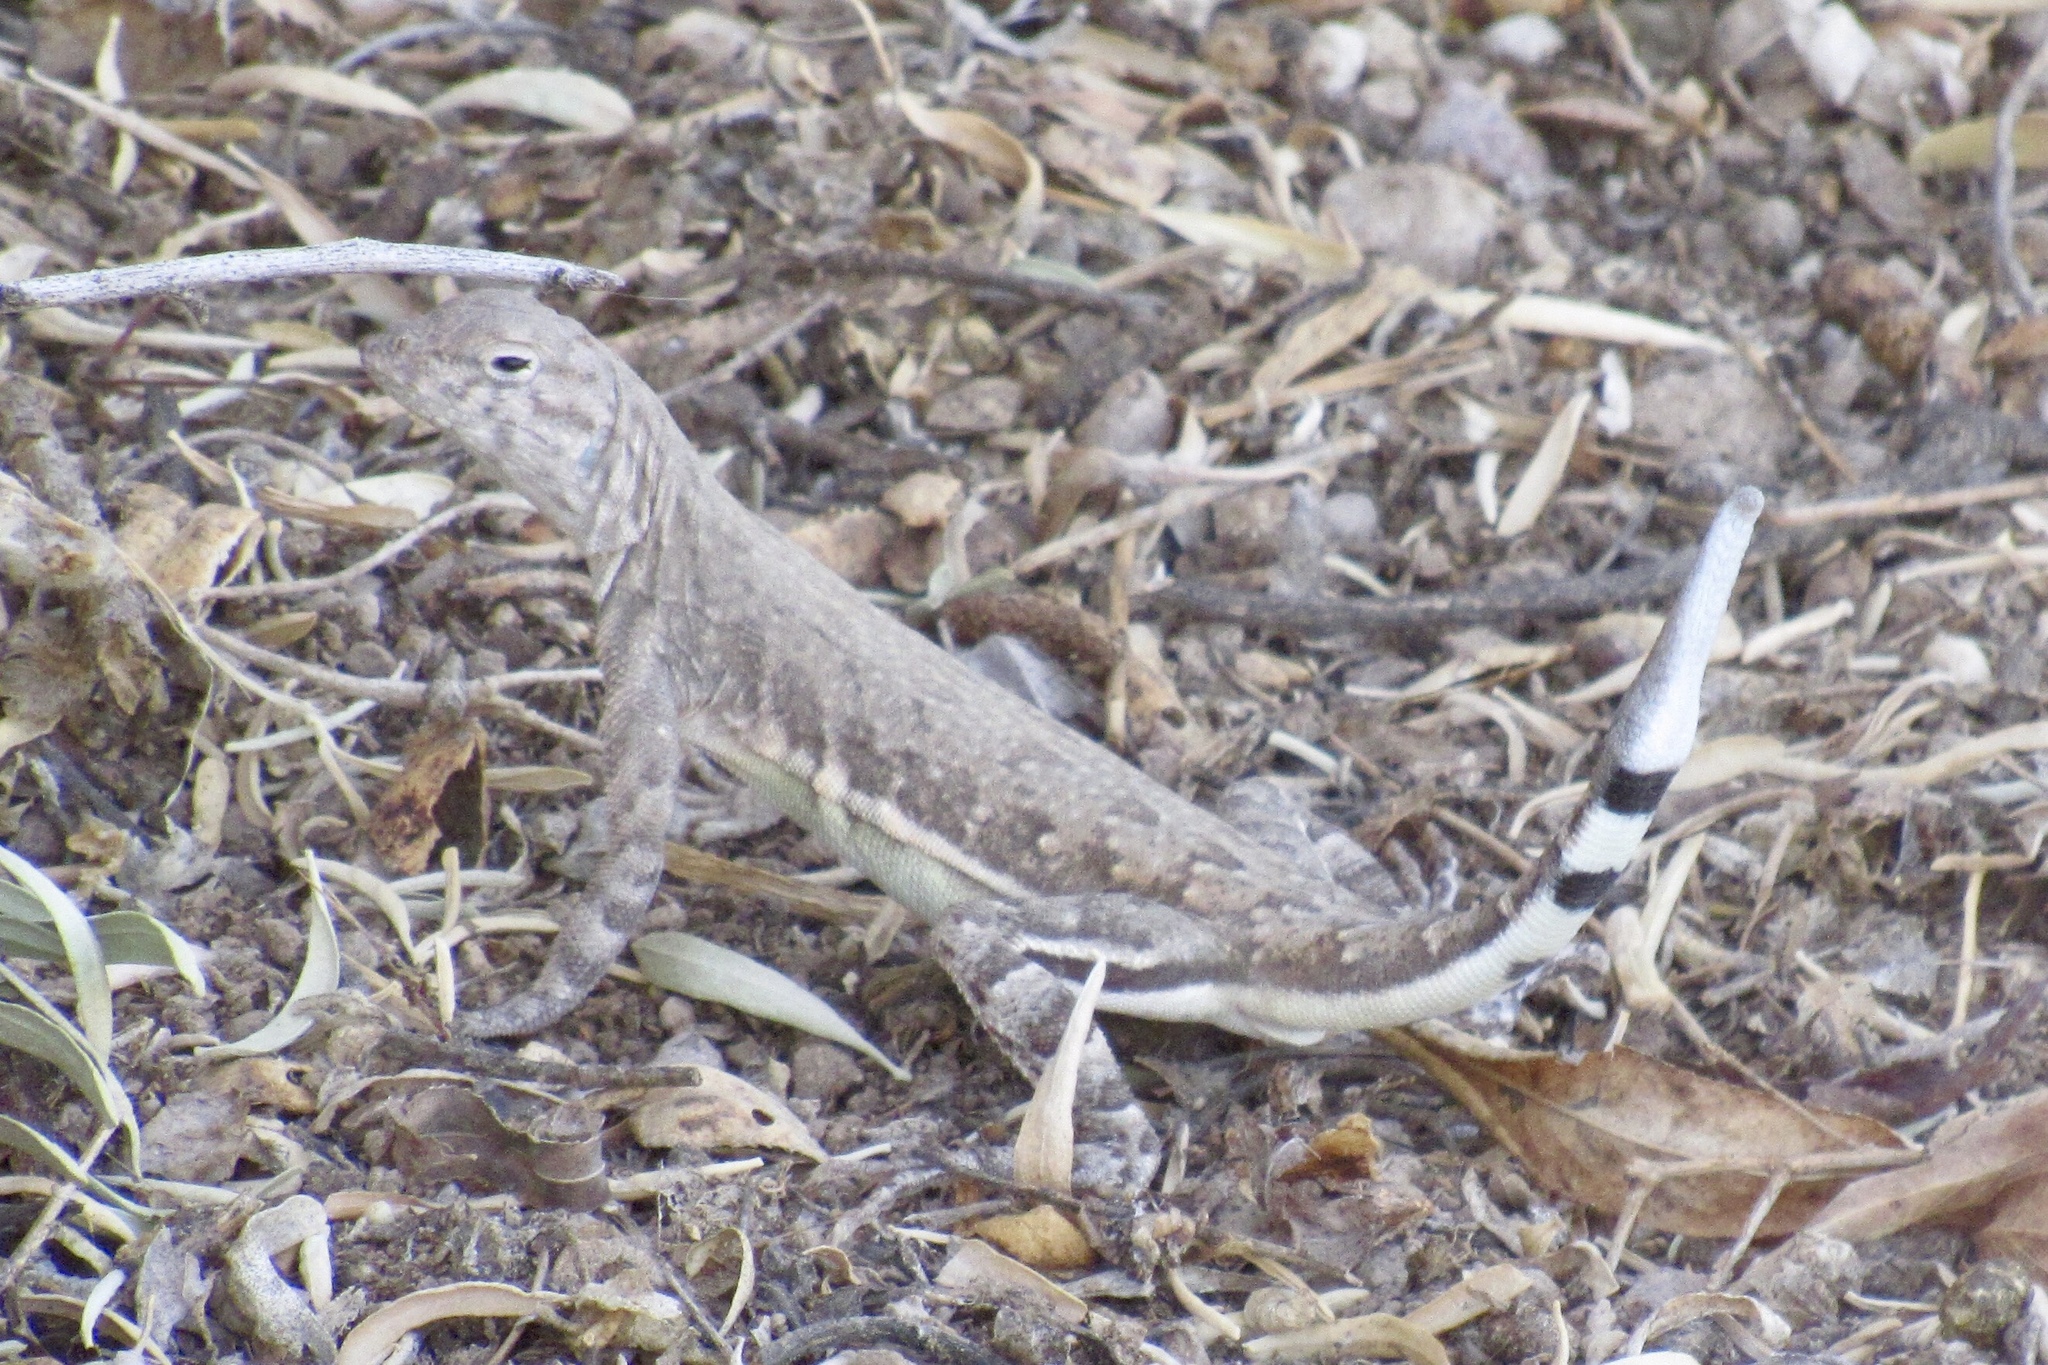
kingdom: Animalia
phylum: Chordata
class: Squamata
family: Phrynosomatidae
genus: Callisaurus
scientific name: Callisaurus draconoides
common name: Zebra-tailed lizard
